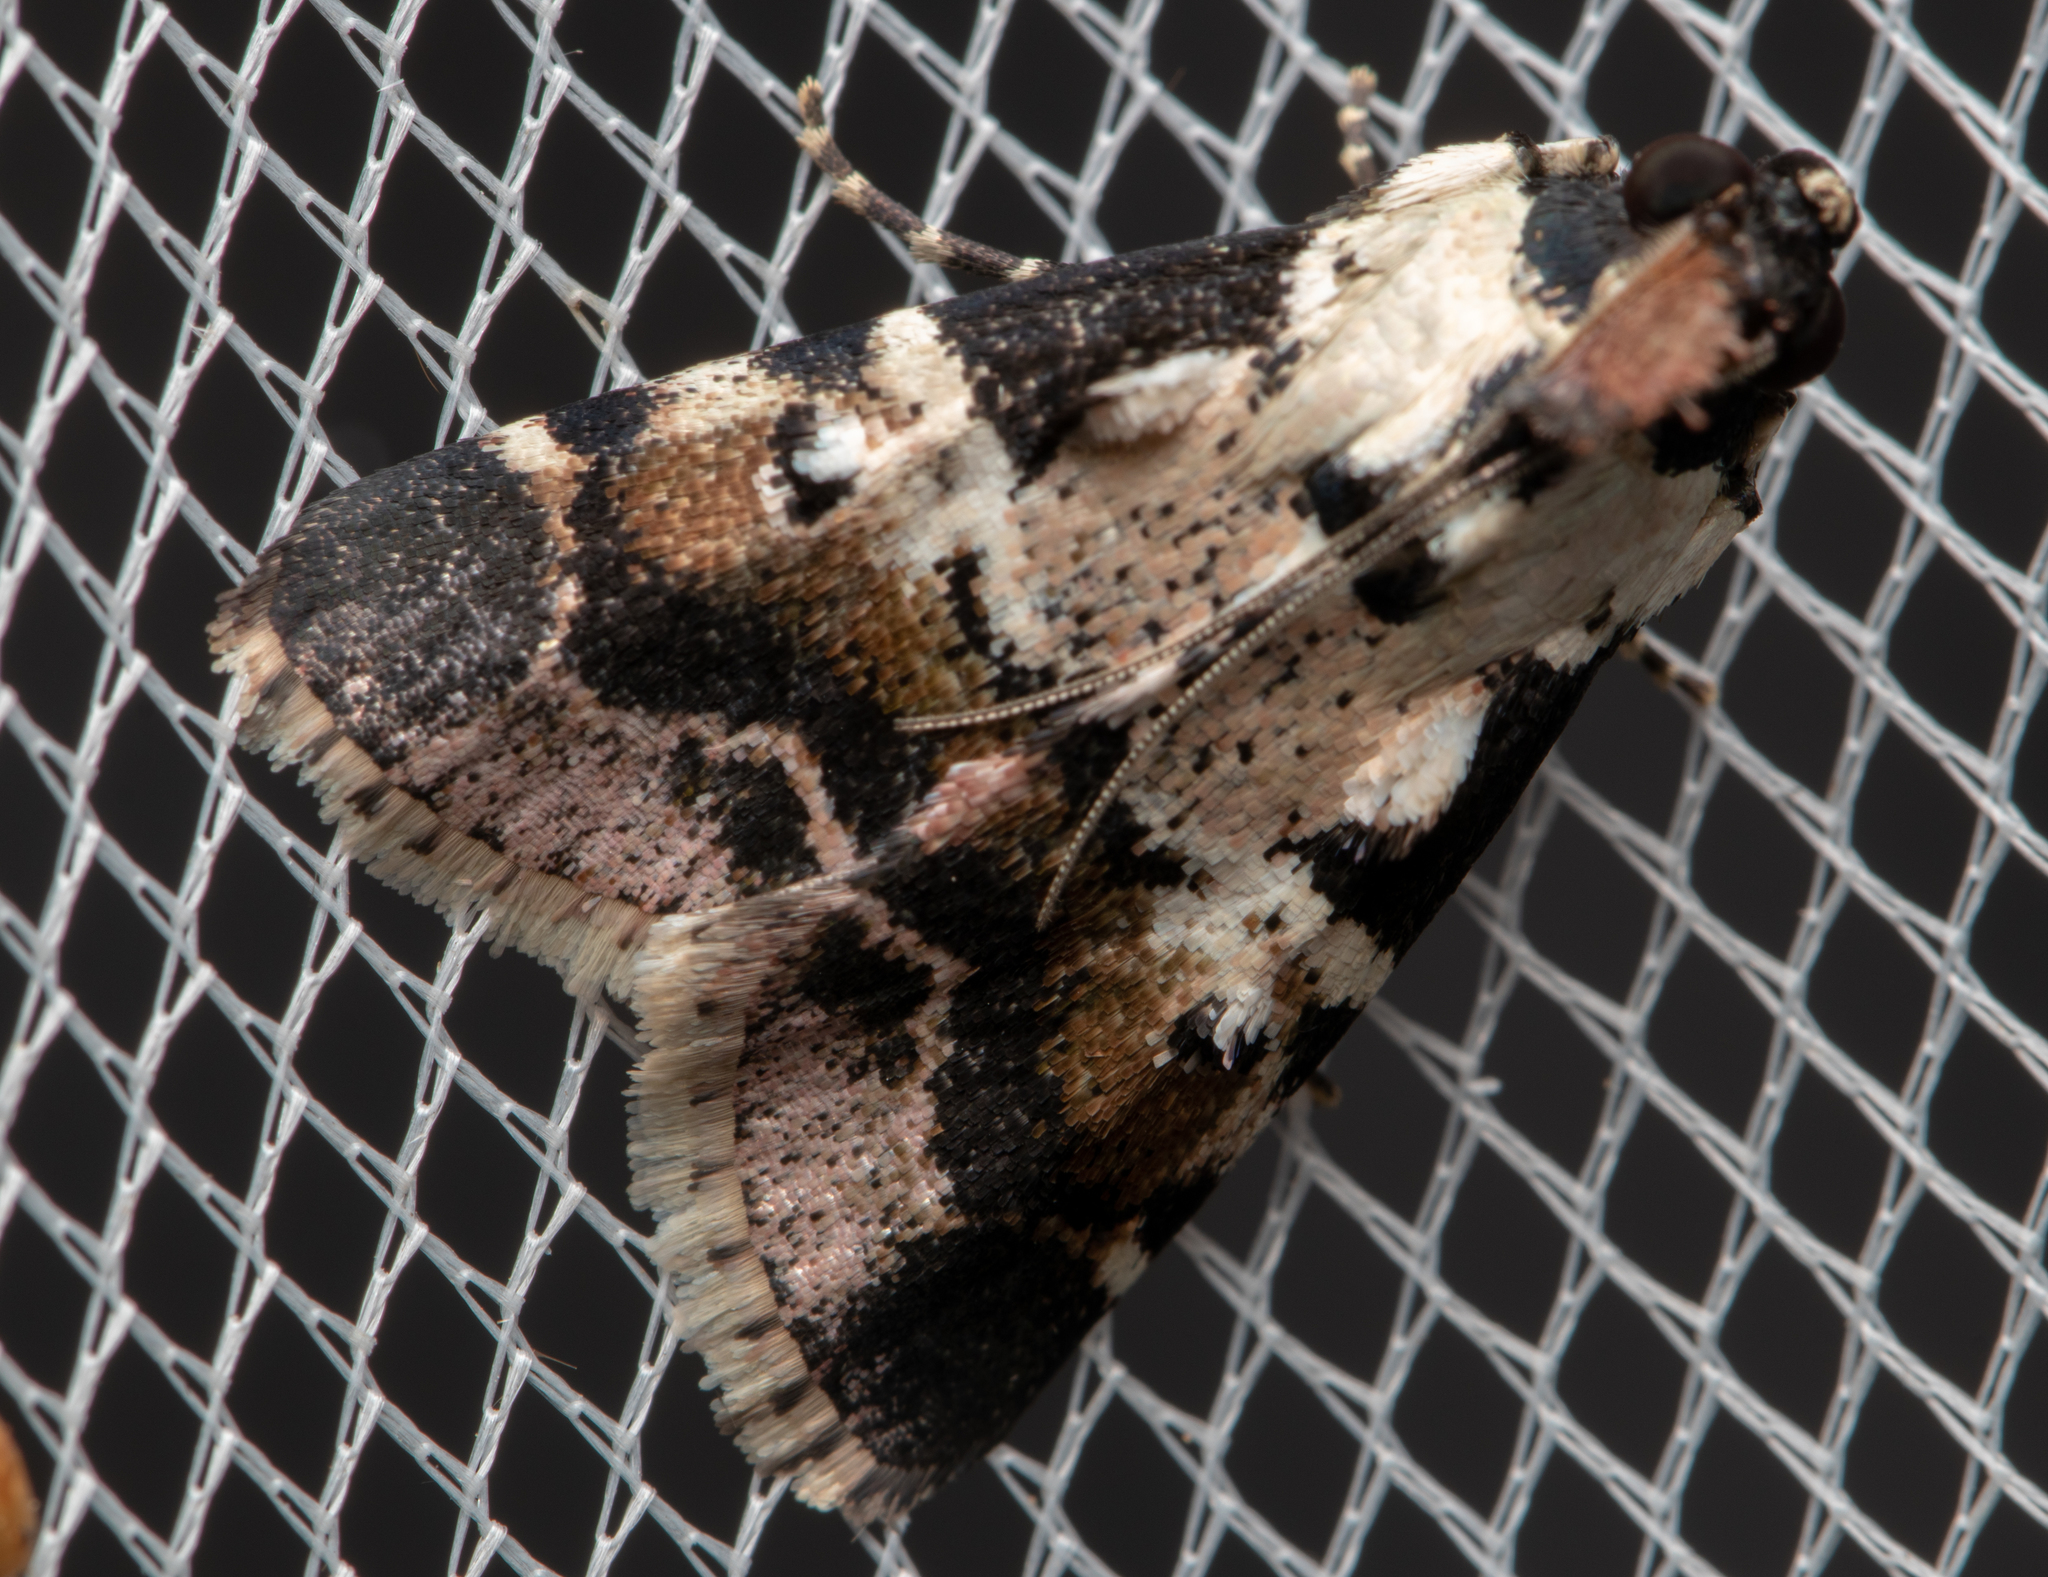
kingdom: Animalia
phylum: Arthropoda
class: Insecta
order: Lepidoptera
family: Pyralidae
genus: Orthaga
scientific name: Orthaga seminivea
